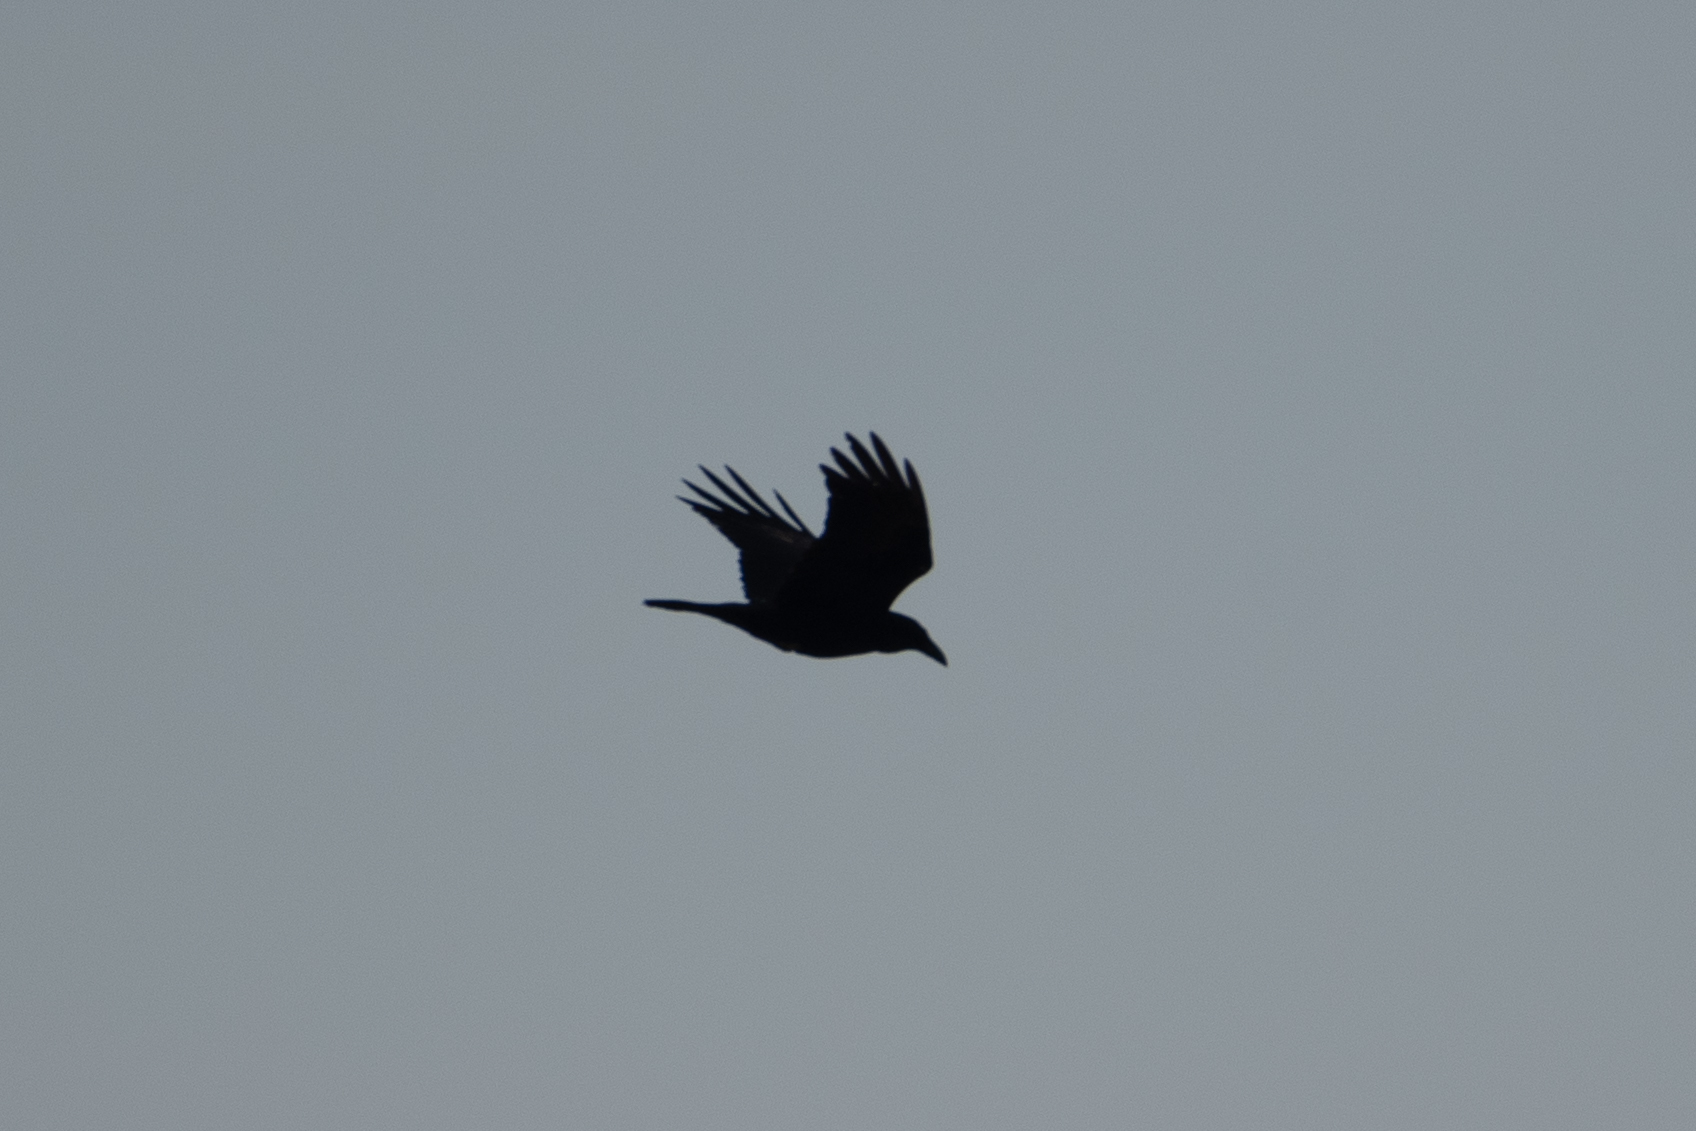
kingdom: Animalia
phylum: Chordata
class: Aves
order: Passeriformes
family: Corvidae
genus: Corvus
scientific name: Corvus corax
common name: Common raven
